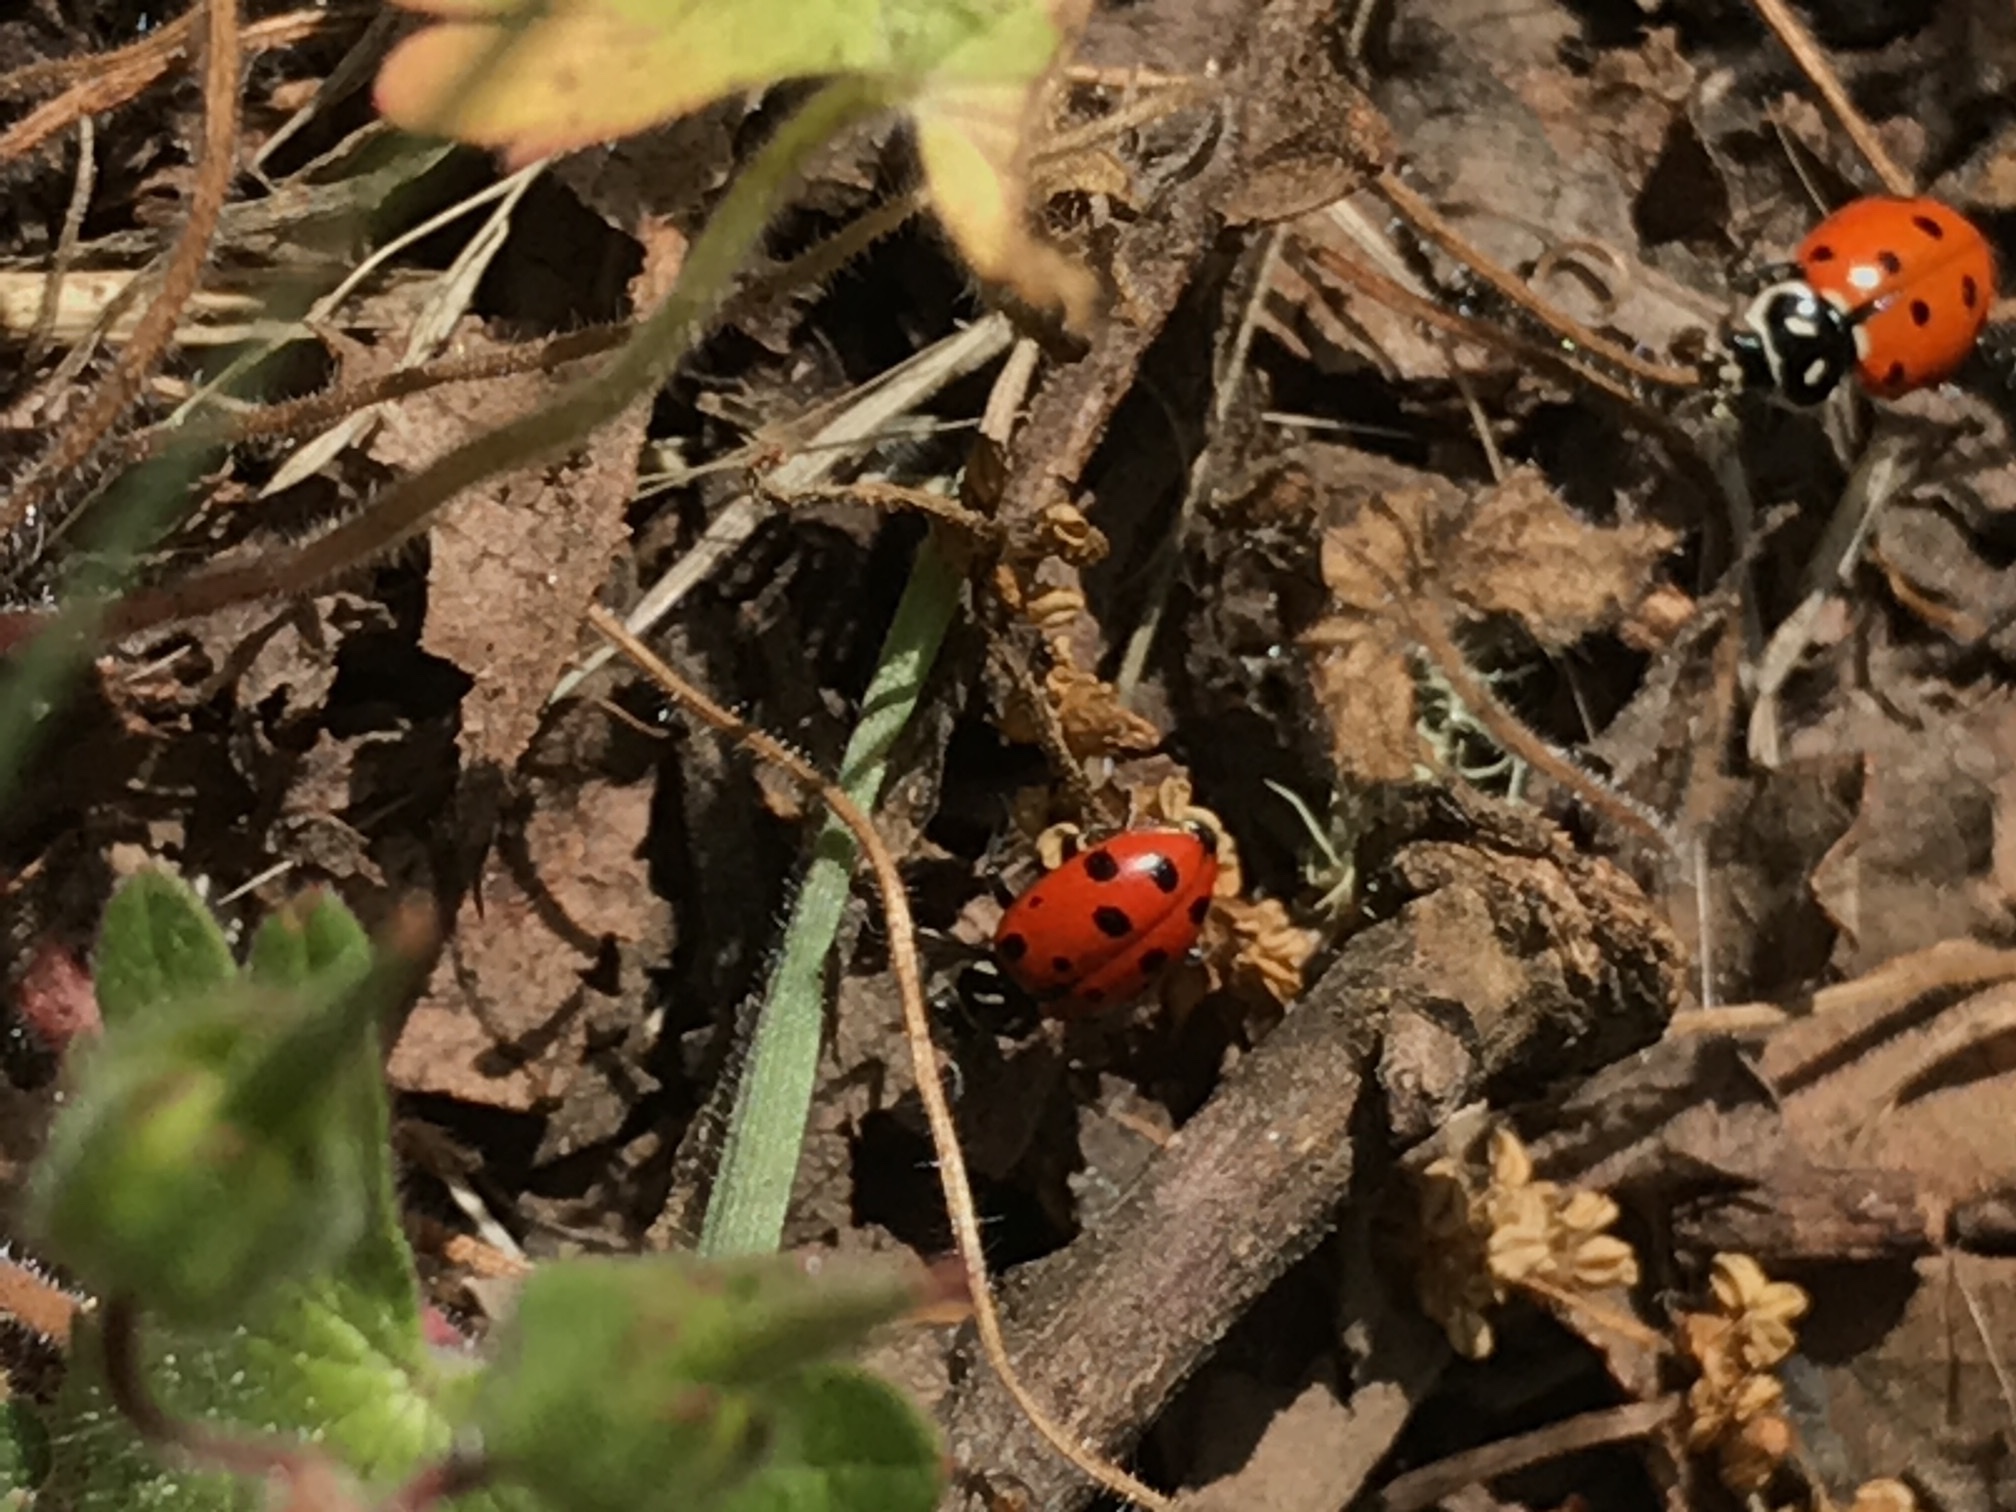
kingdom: Animalia
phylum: Arthropoda
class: Insecta
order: Coleoptera
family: Coccinellidae
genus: Hippodamia
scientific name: Hippodamia convergens
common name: Convergent lady beetle
